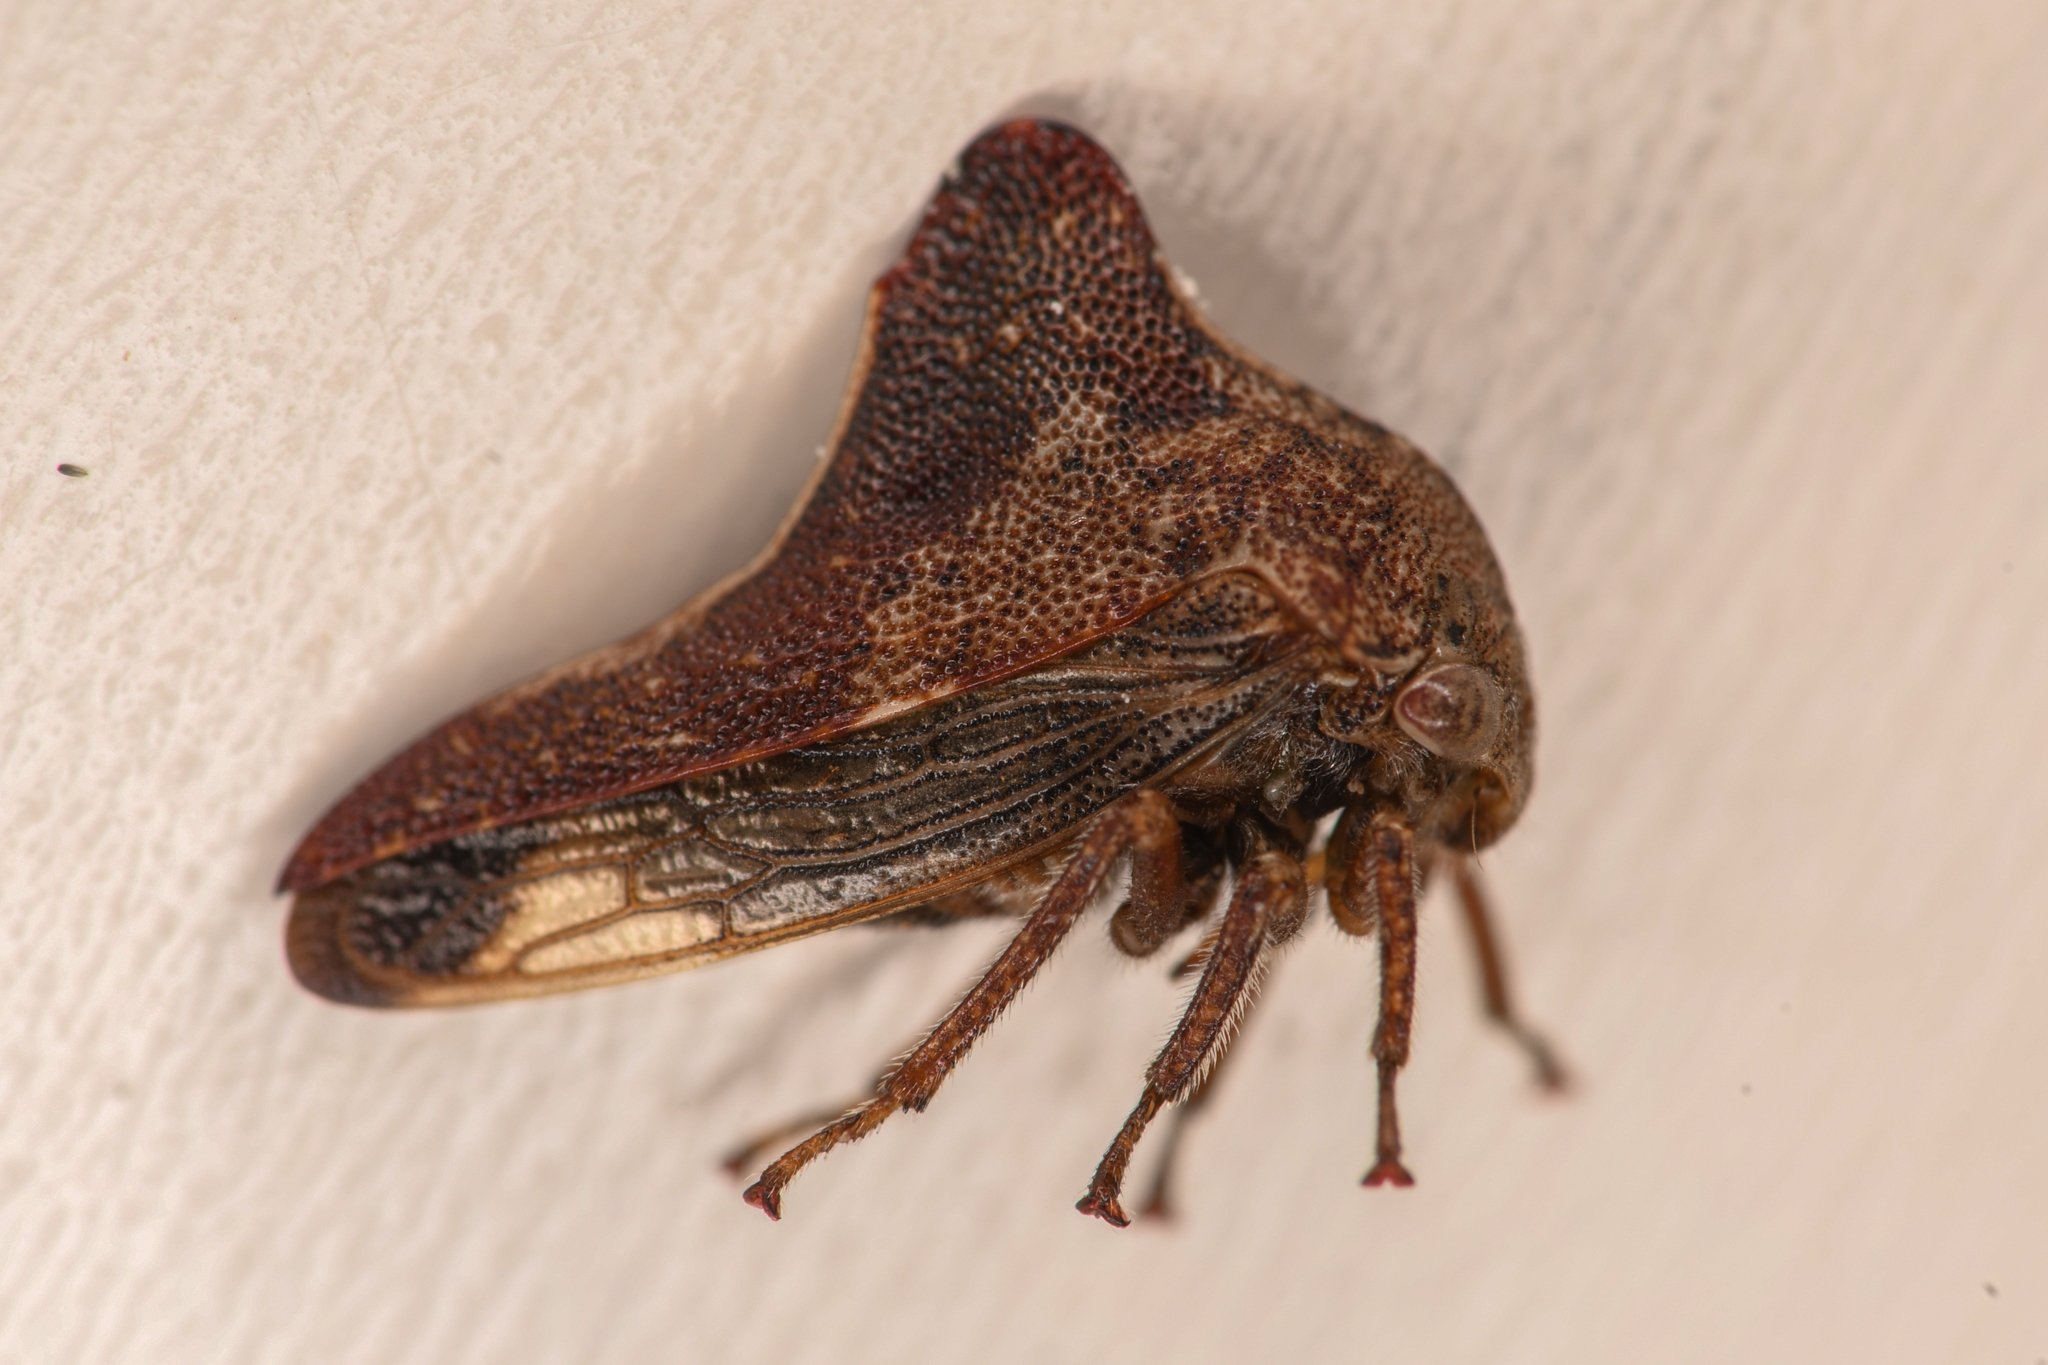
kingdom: Animalia
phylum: Arthropoda
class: Insecta
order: Hemiptera
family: Membracidae
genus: Palonica
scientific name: Palonica pyramidata
